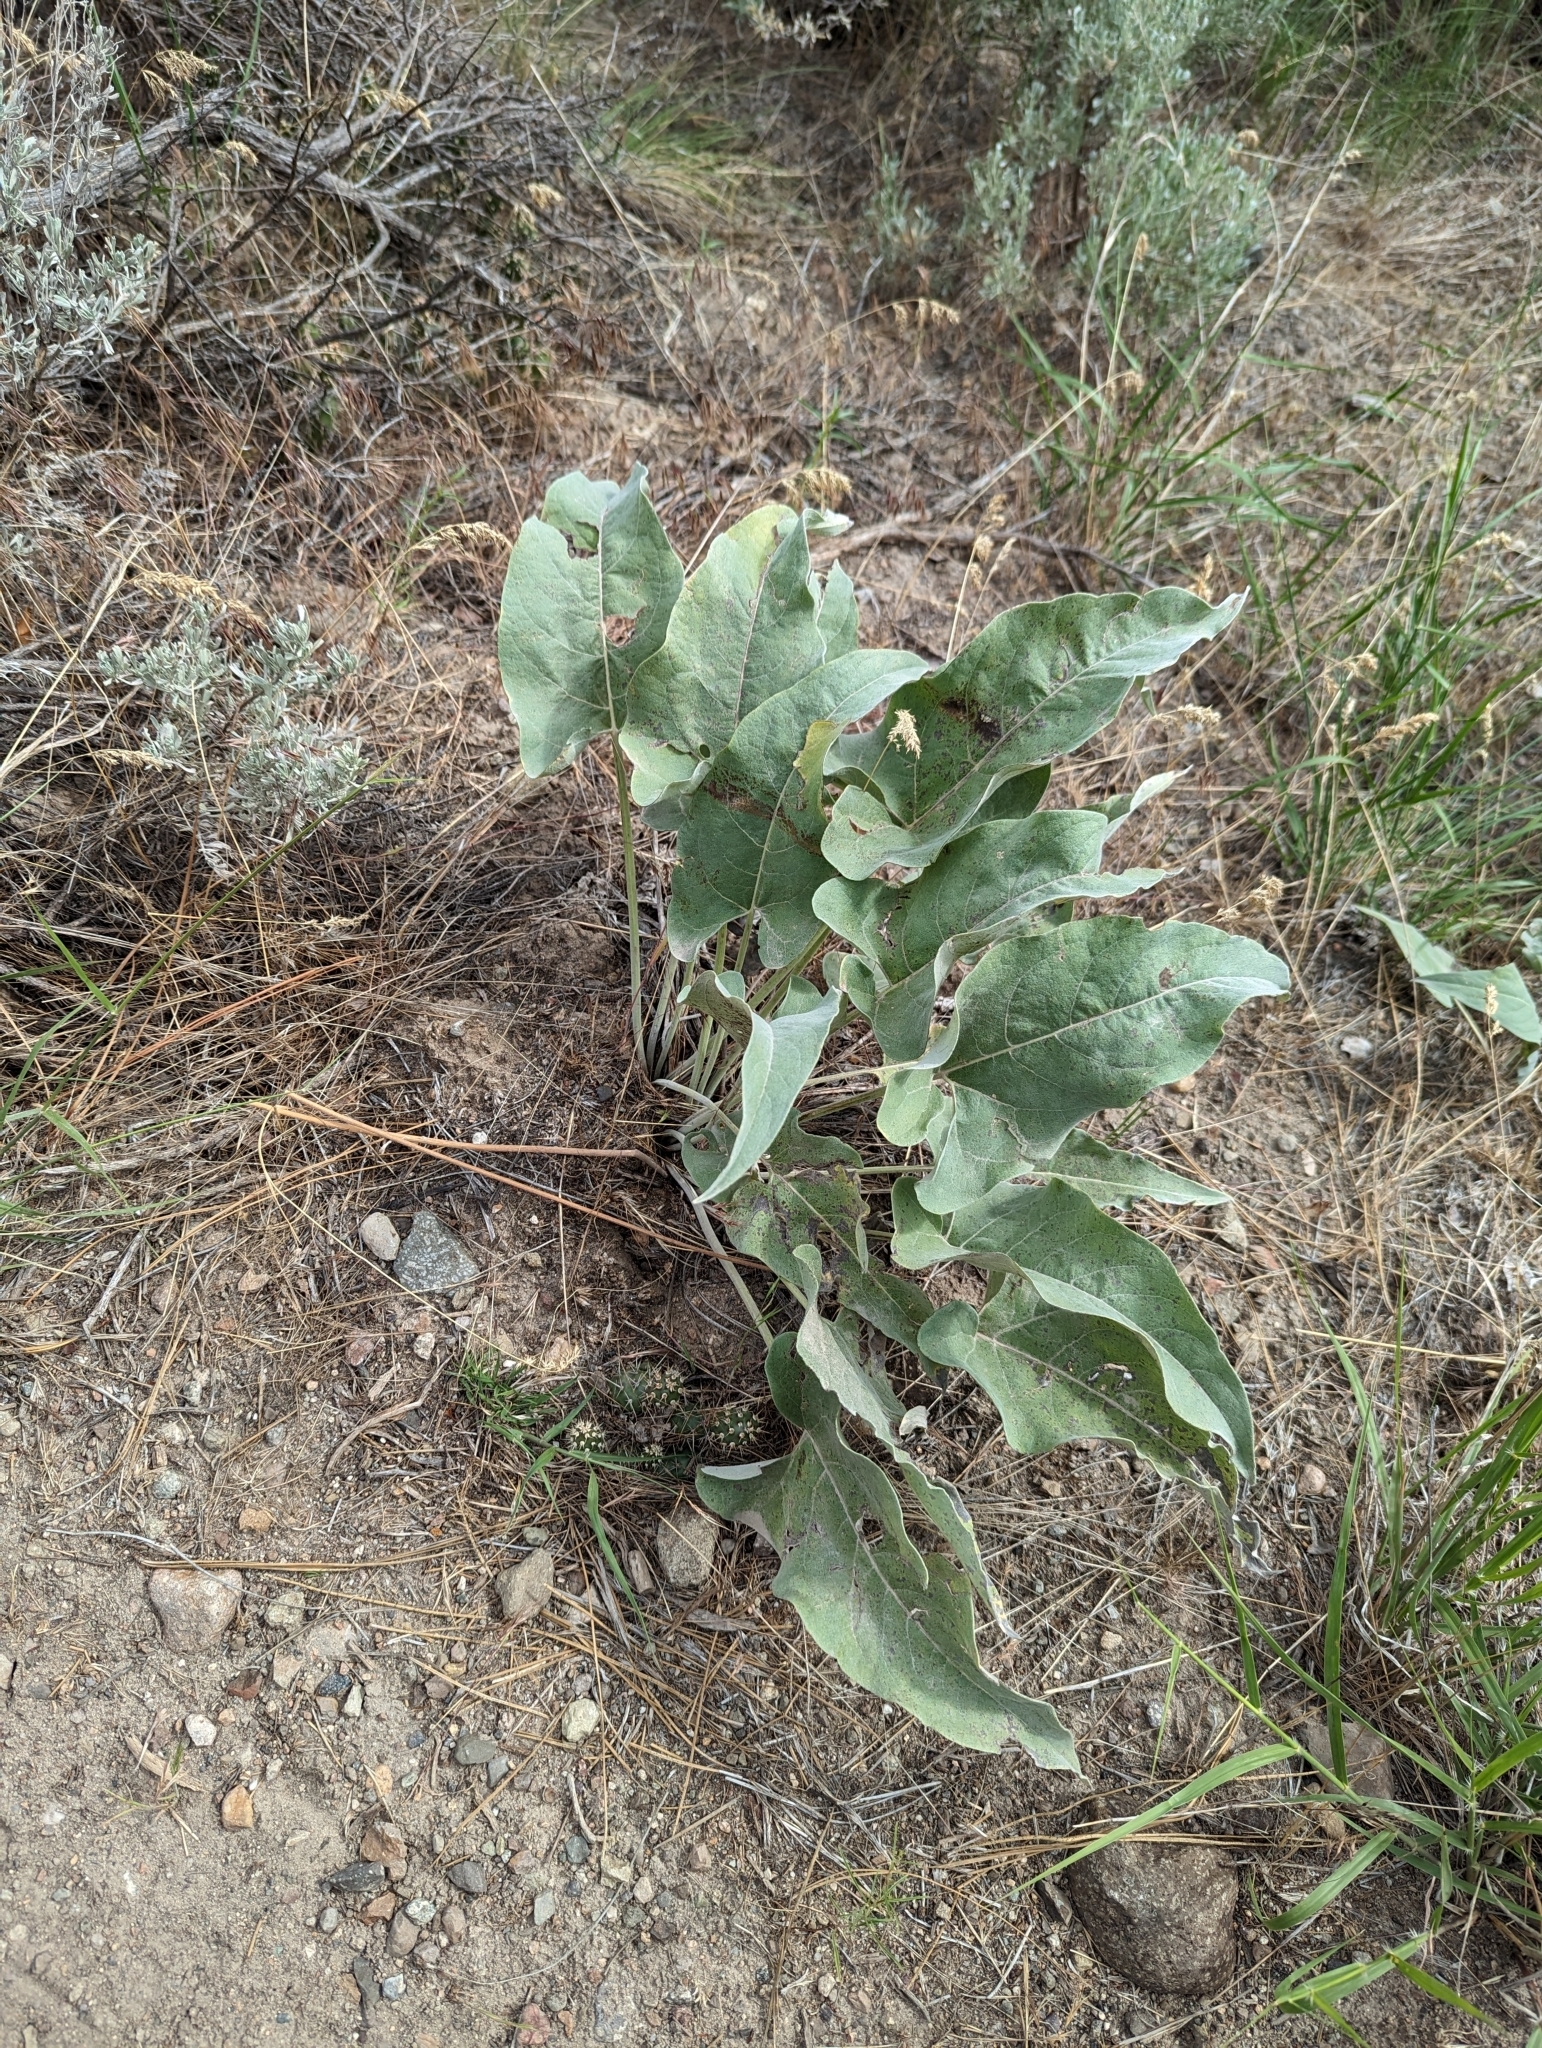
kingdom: Plantae
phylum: Tracheophyta
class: Magnoliopsida
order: Asterales
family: Asteraceae
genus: Wyethia
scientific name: Wyethia sagittata
